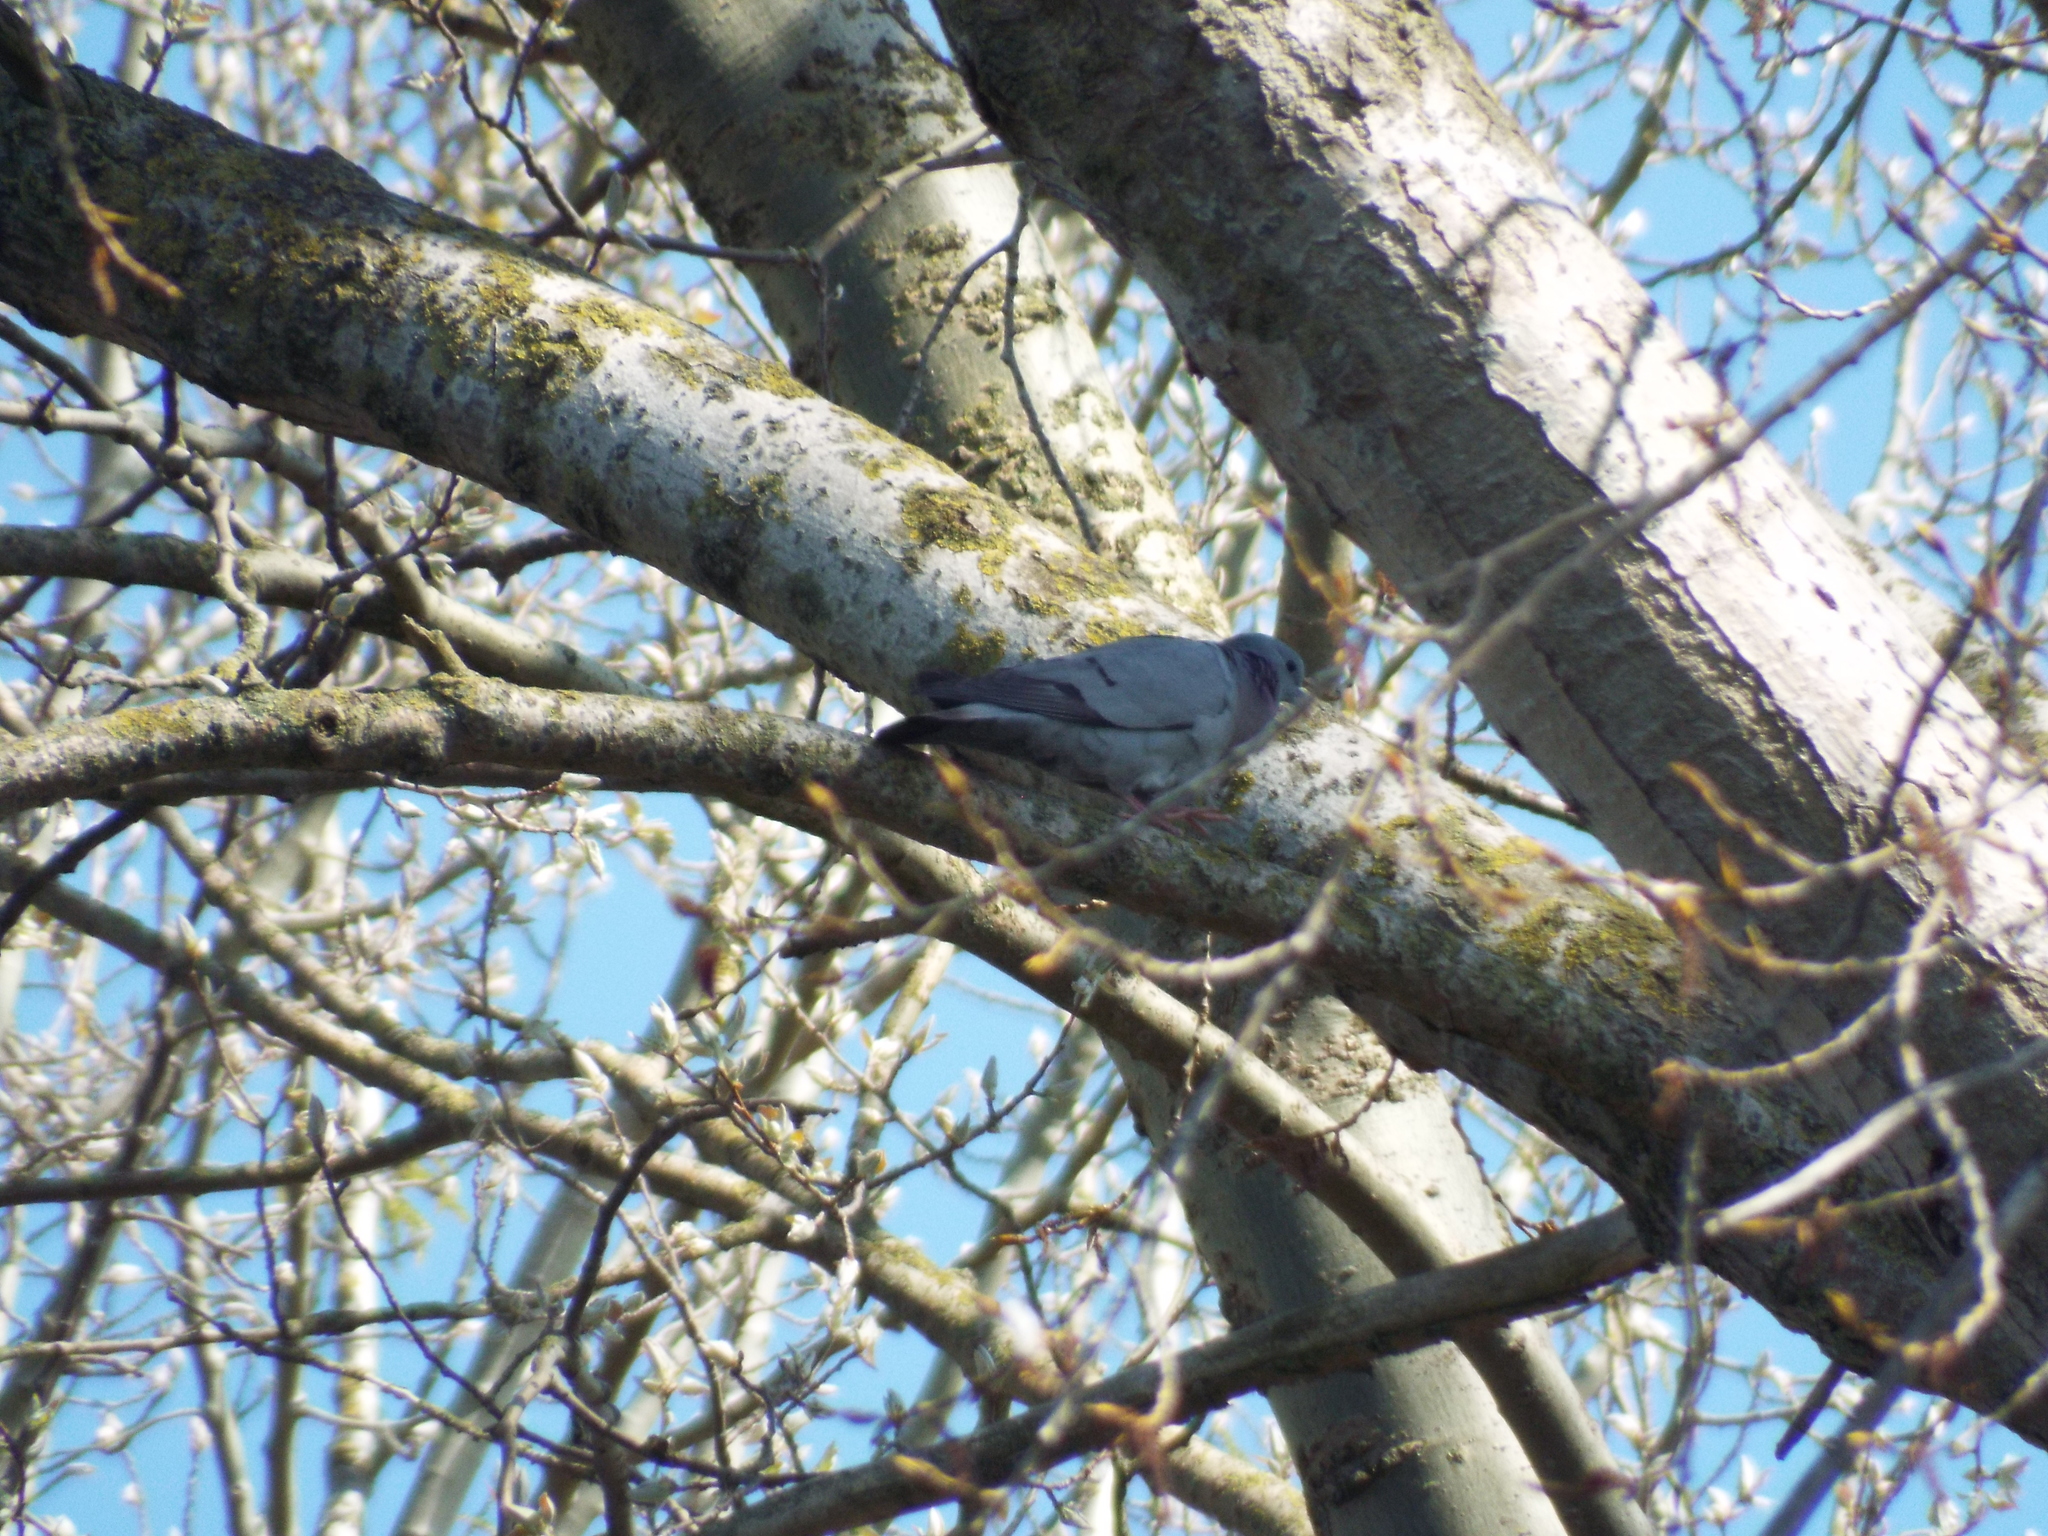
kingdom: Animalia
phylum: Chordata
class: Aves
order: Columbiformes
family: Columbidae
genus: Columba
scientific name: Columba oenas
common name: Stock dove
